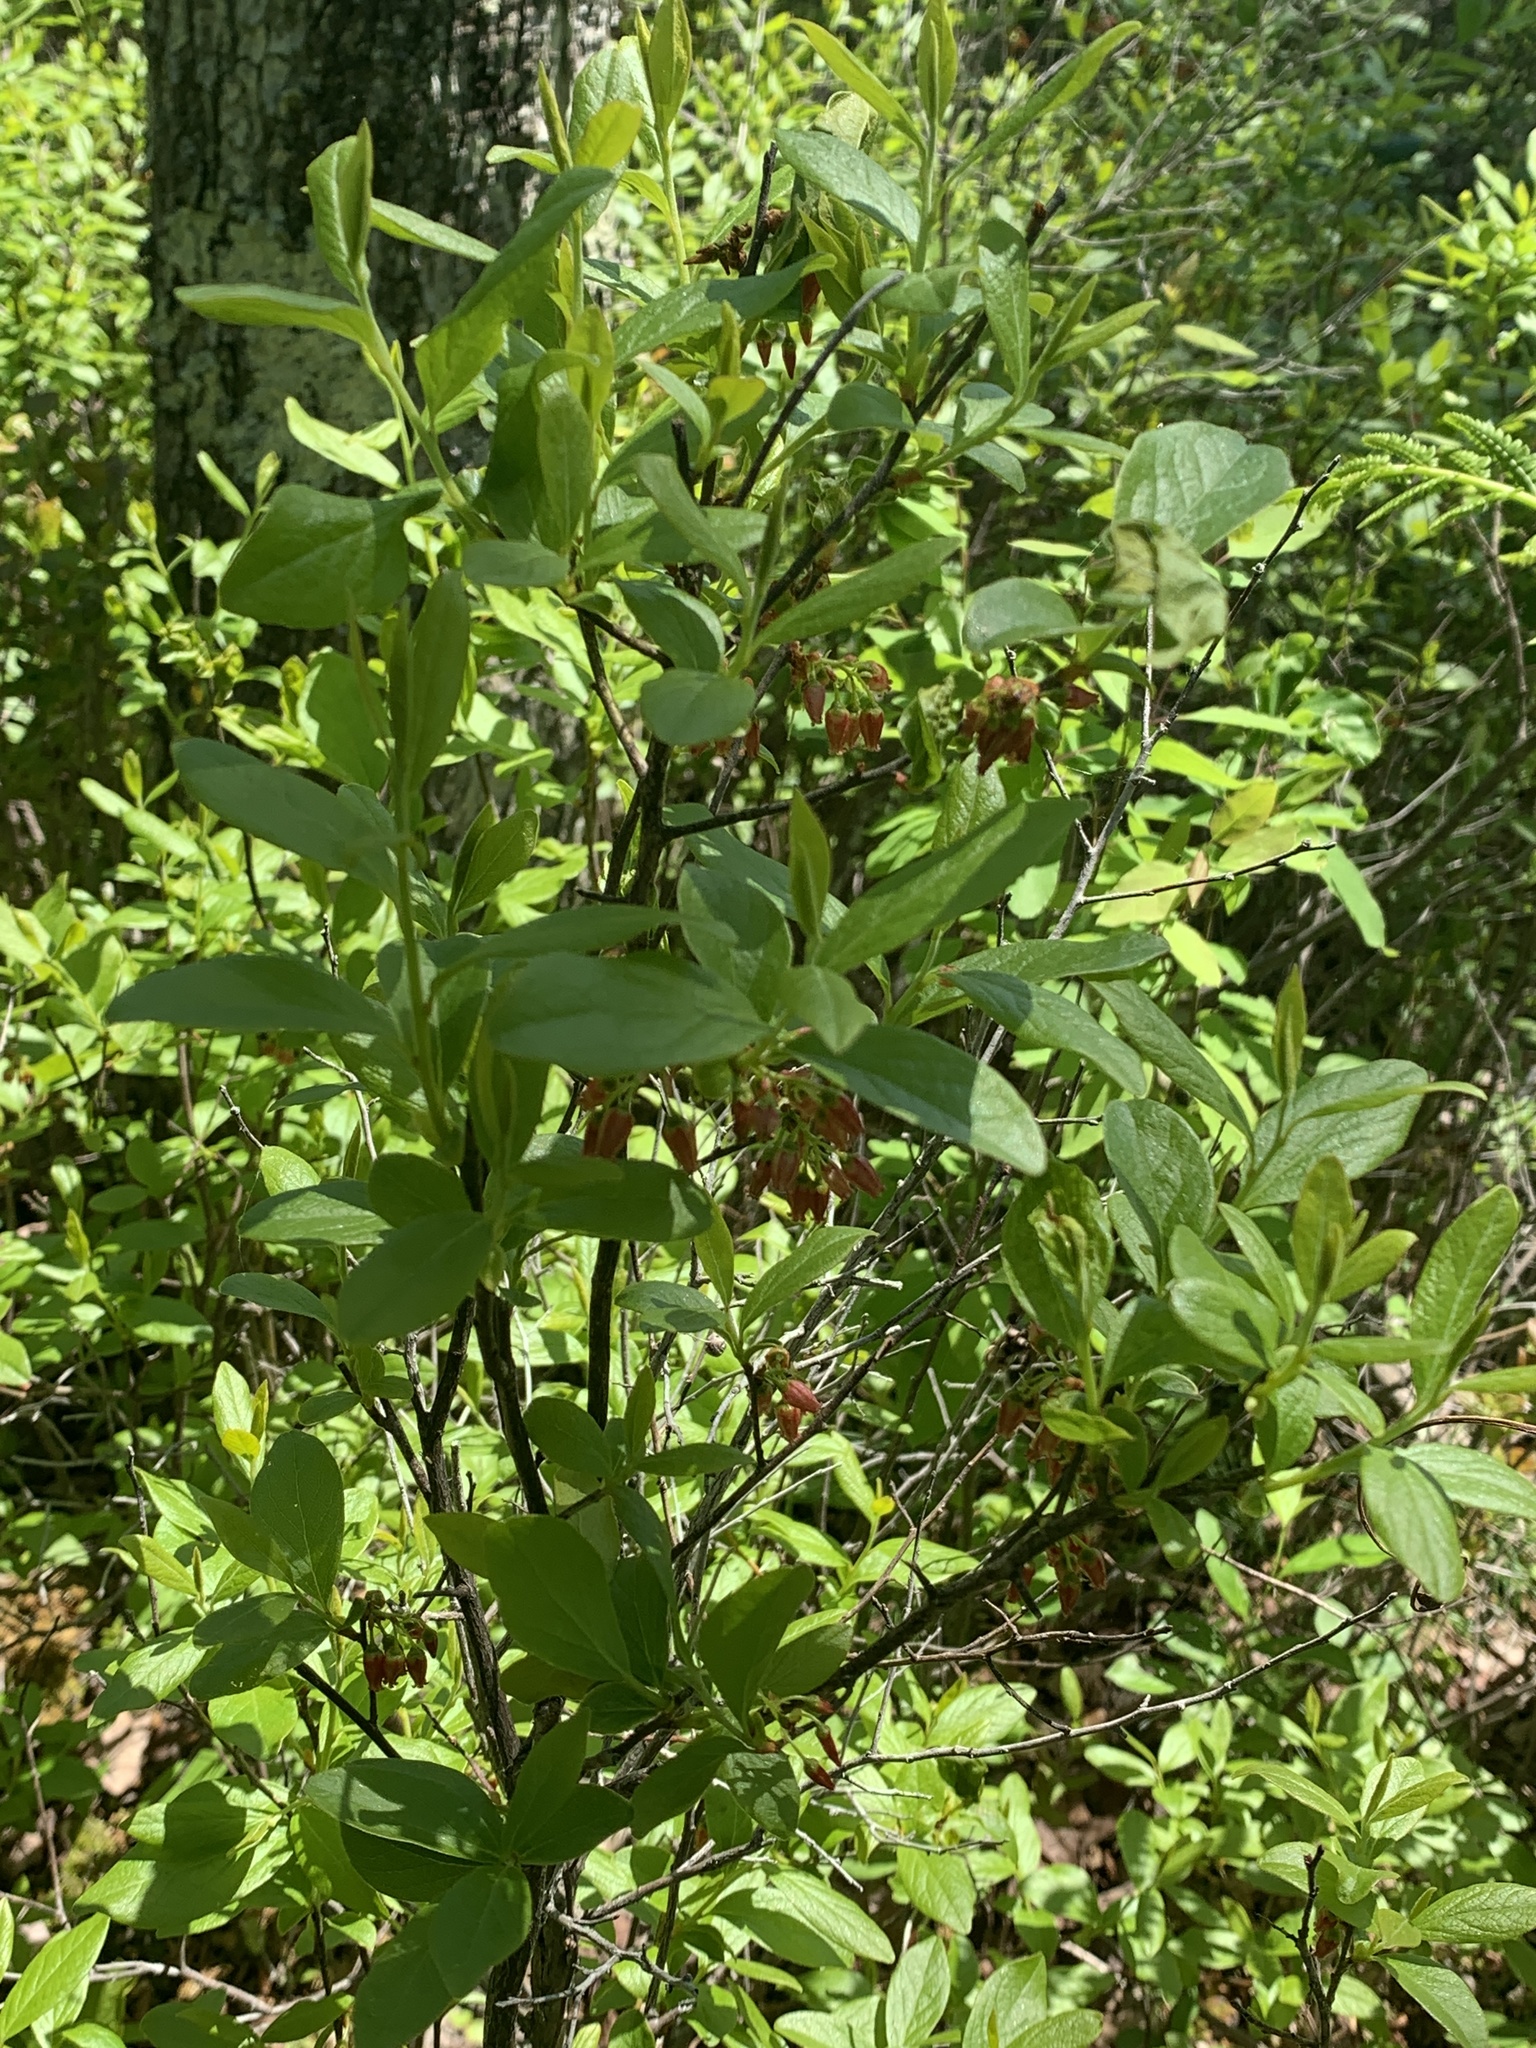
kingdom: Plantae
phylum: Tracheophyta
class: Magnoliopsida
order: Ericales
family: Ericaceae
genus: Gaylussacia
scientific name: Gaylussacia baccata
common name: Black huckleberry
